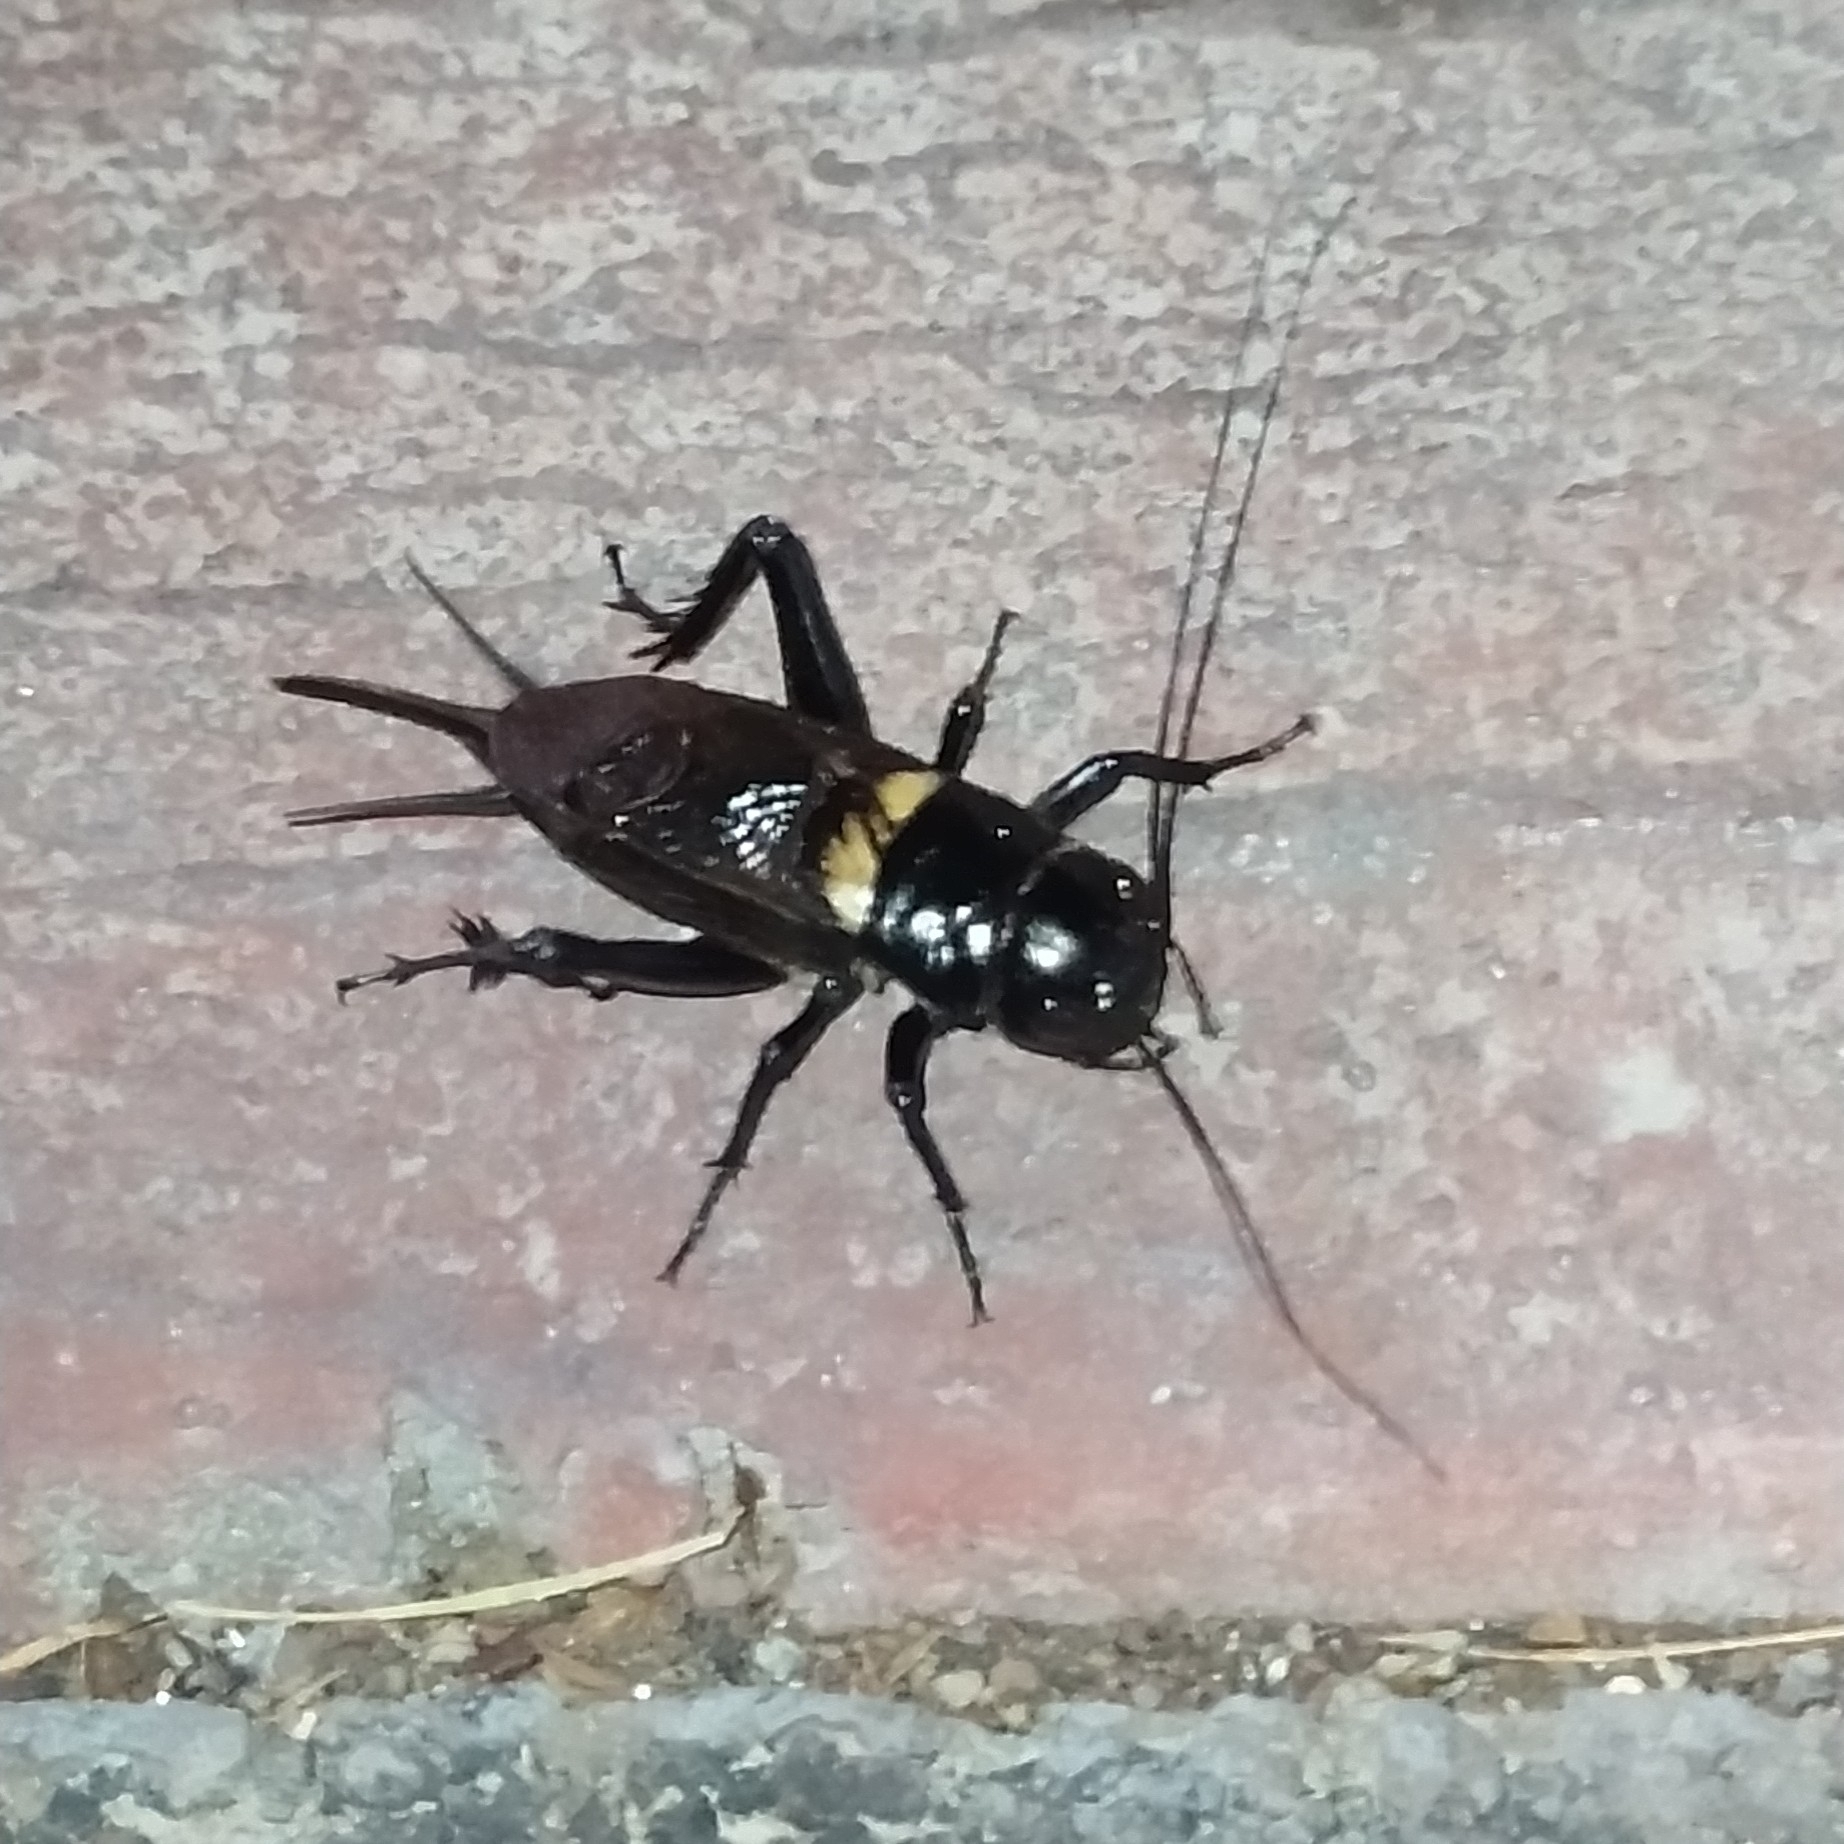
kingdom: Animalia
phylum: Arthropoda
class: Insecta
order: Orthoptera
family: Gryllidae
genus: Gryllus
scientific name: Gryllus bimaculatus
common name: Two-spotted cricket
